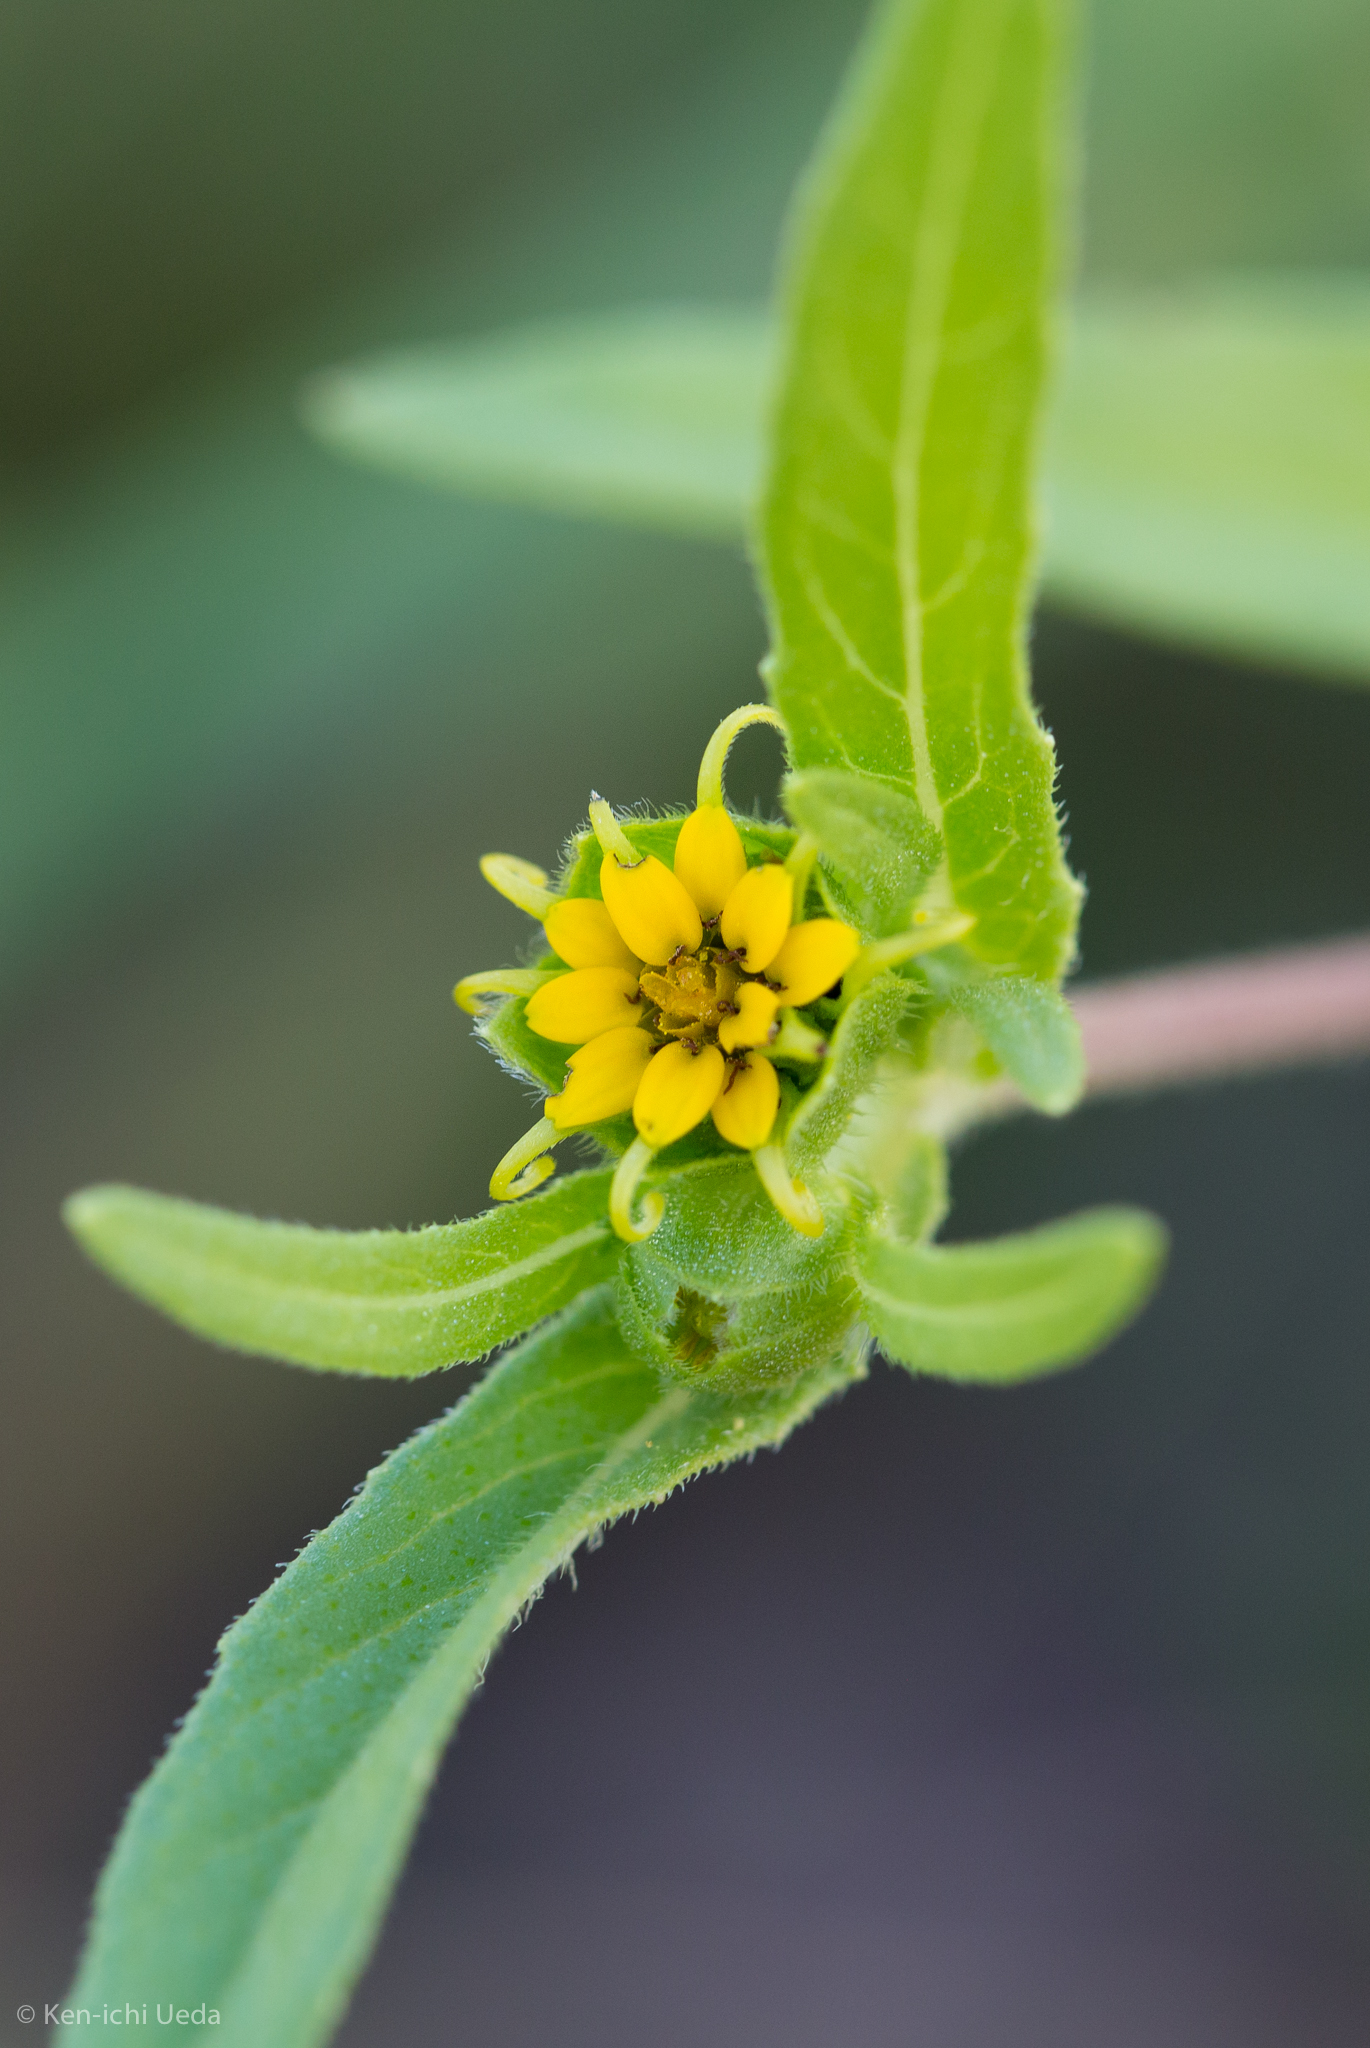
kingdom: Plantae
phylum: Tracheophyta
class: Magnoliopsida
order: Asterales
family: Asteraceae
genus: Melampodium
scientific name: Melampodium longicorne
